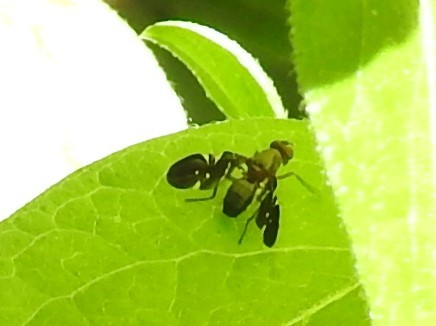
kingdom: Animalia
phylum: Arthropoda
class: Insecta
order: Diptera
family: Ulidiidae
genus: Delphinia
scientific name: Delphinia picta
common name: Common picture-winged fly
